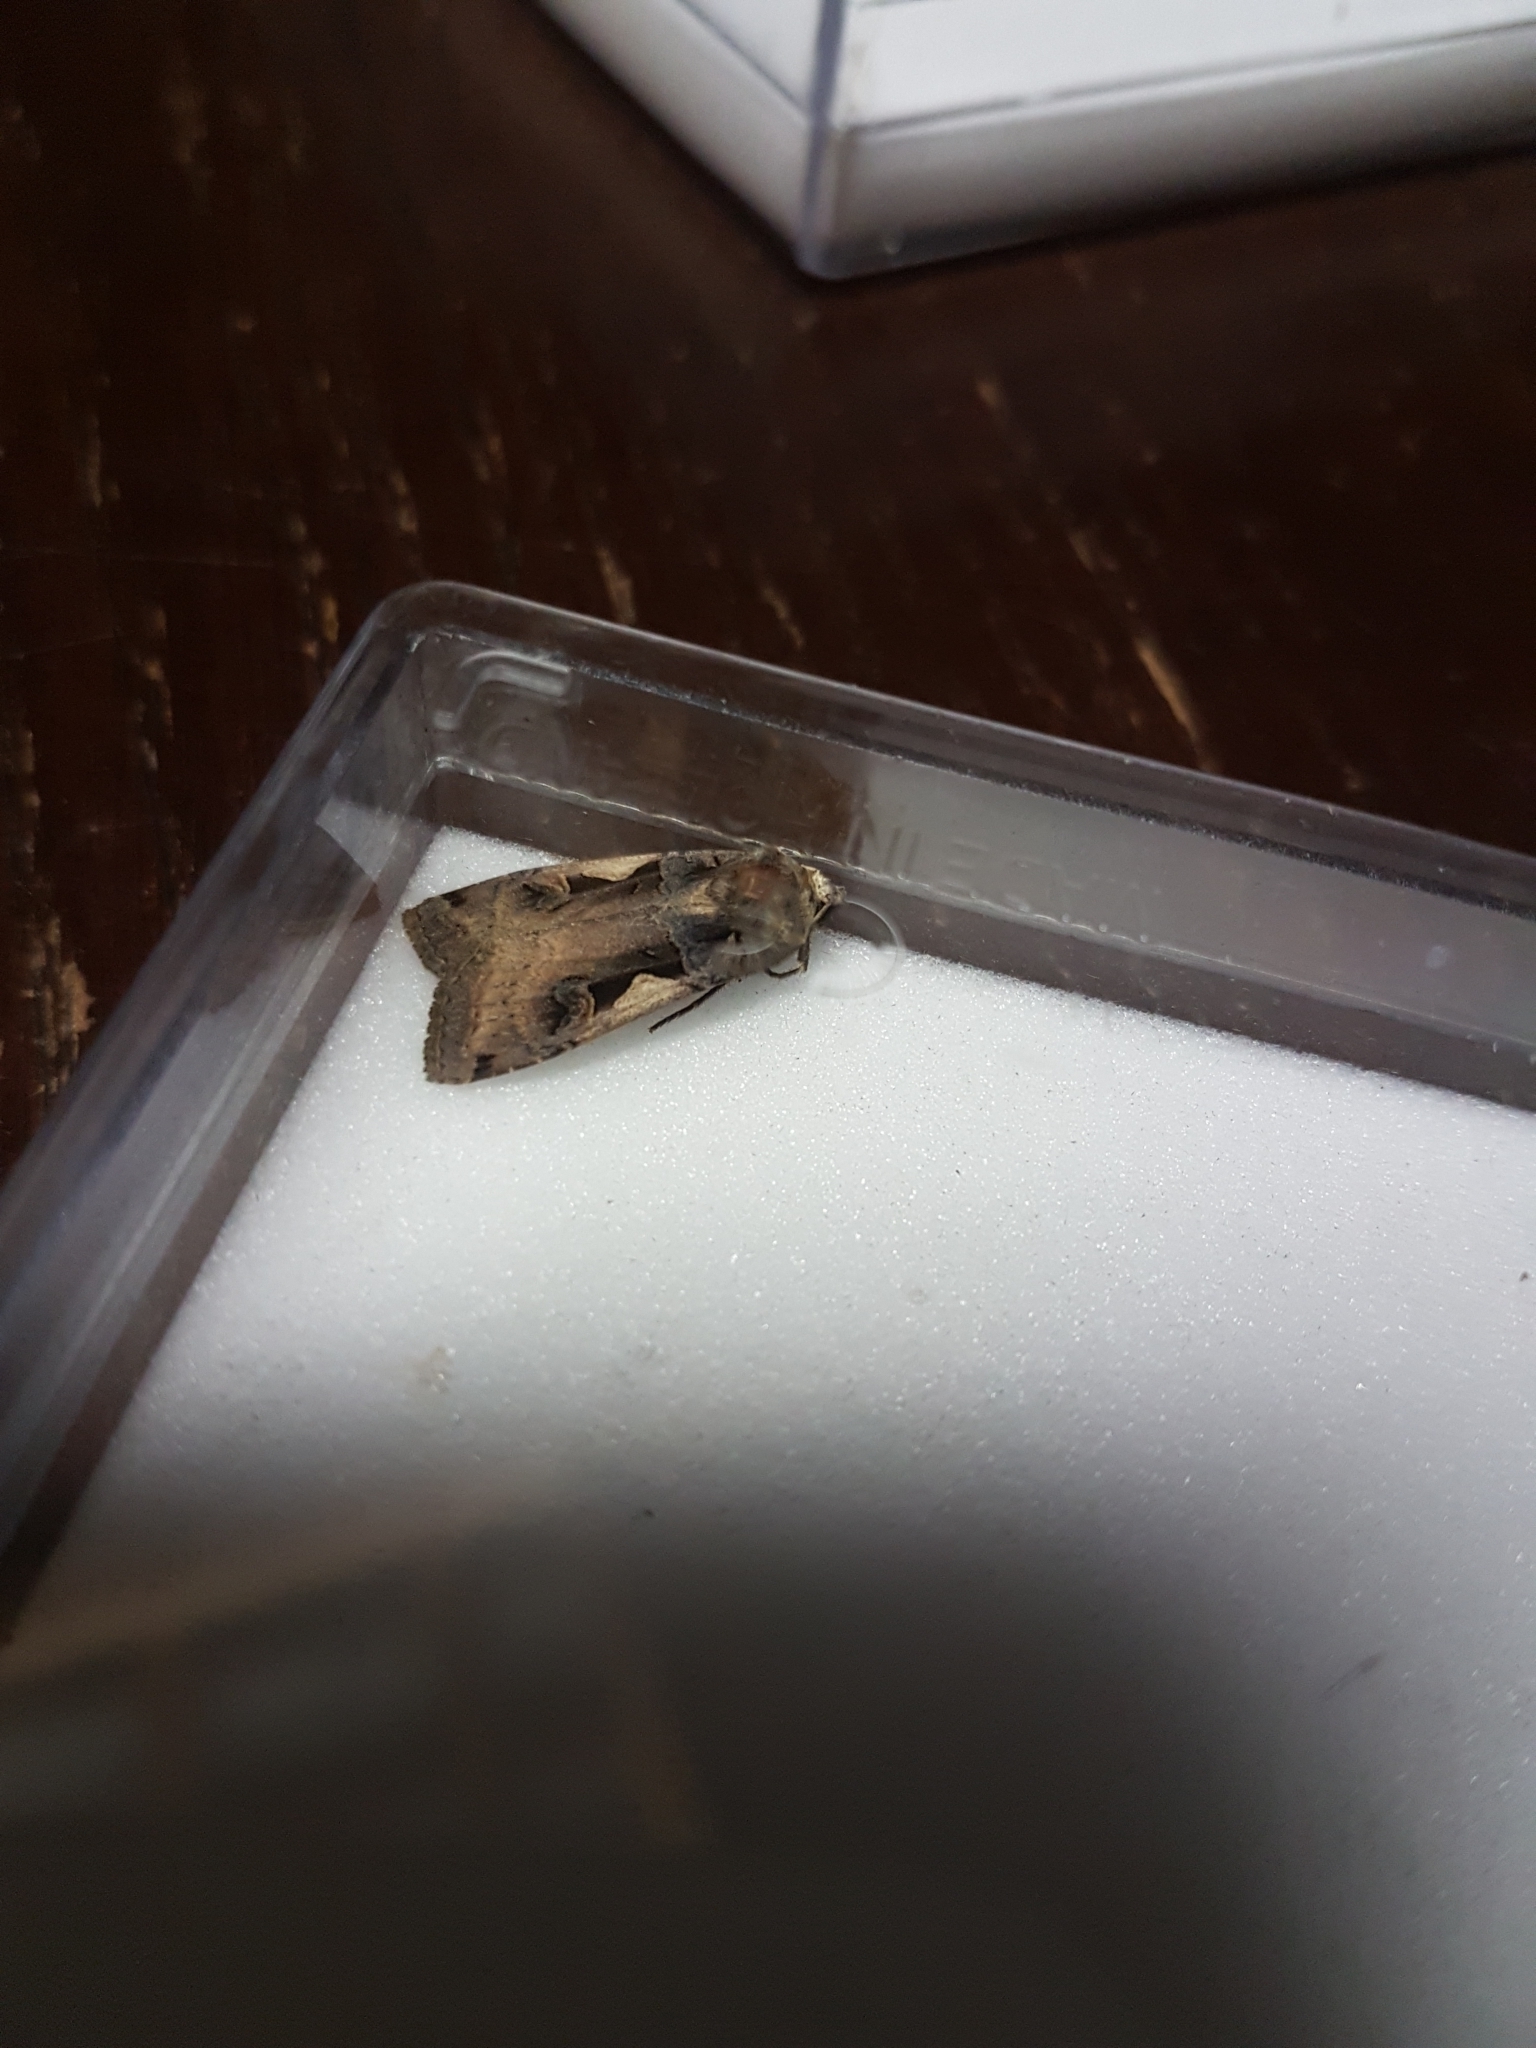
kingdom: Animalia
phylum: Arthropoda
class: Insecta
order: Lepidoptera
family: Noctuidae
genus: Xestia
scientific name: Xestia c-nigrum
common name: Setaceous hebrew character
